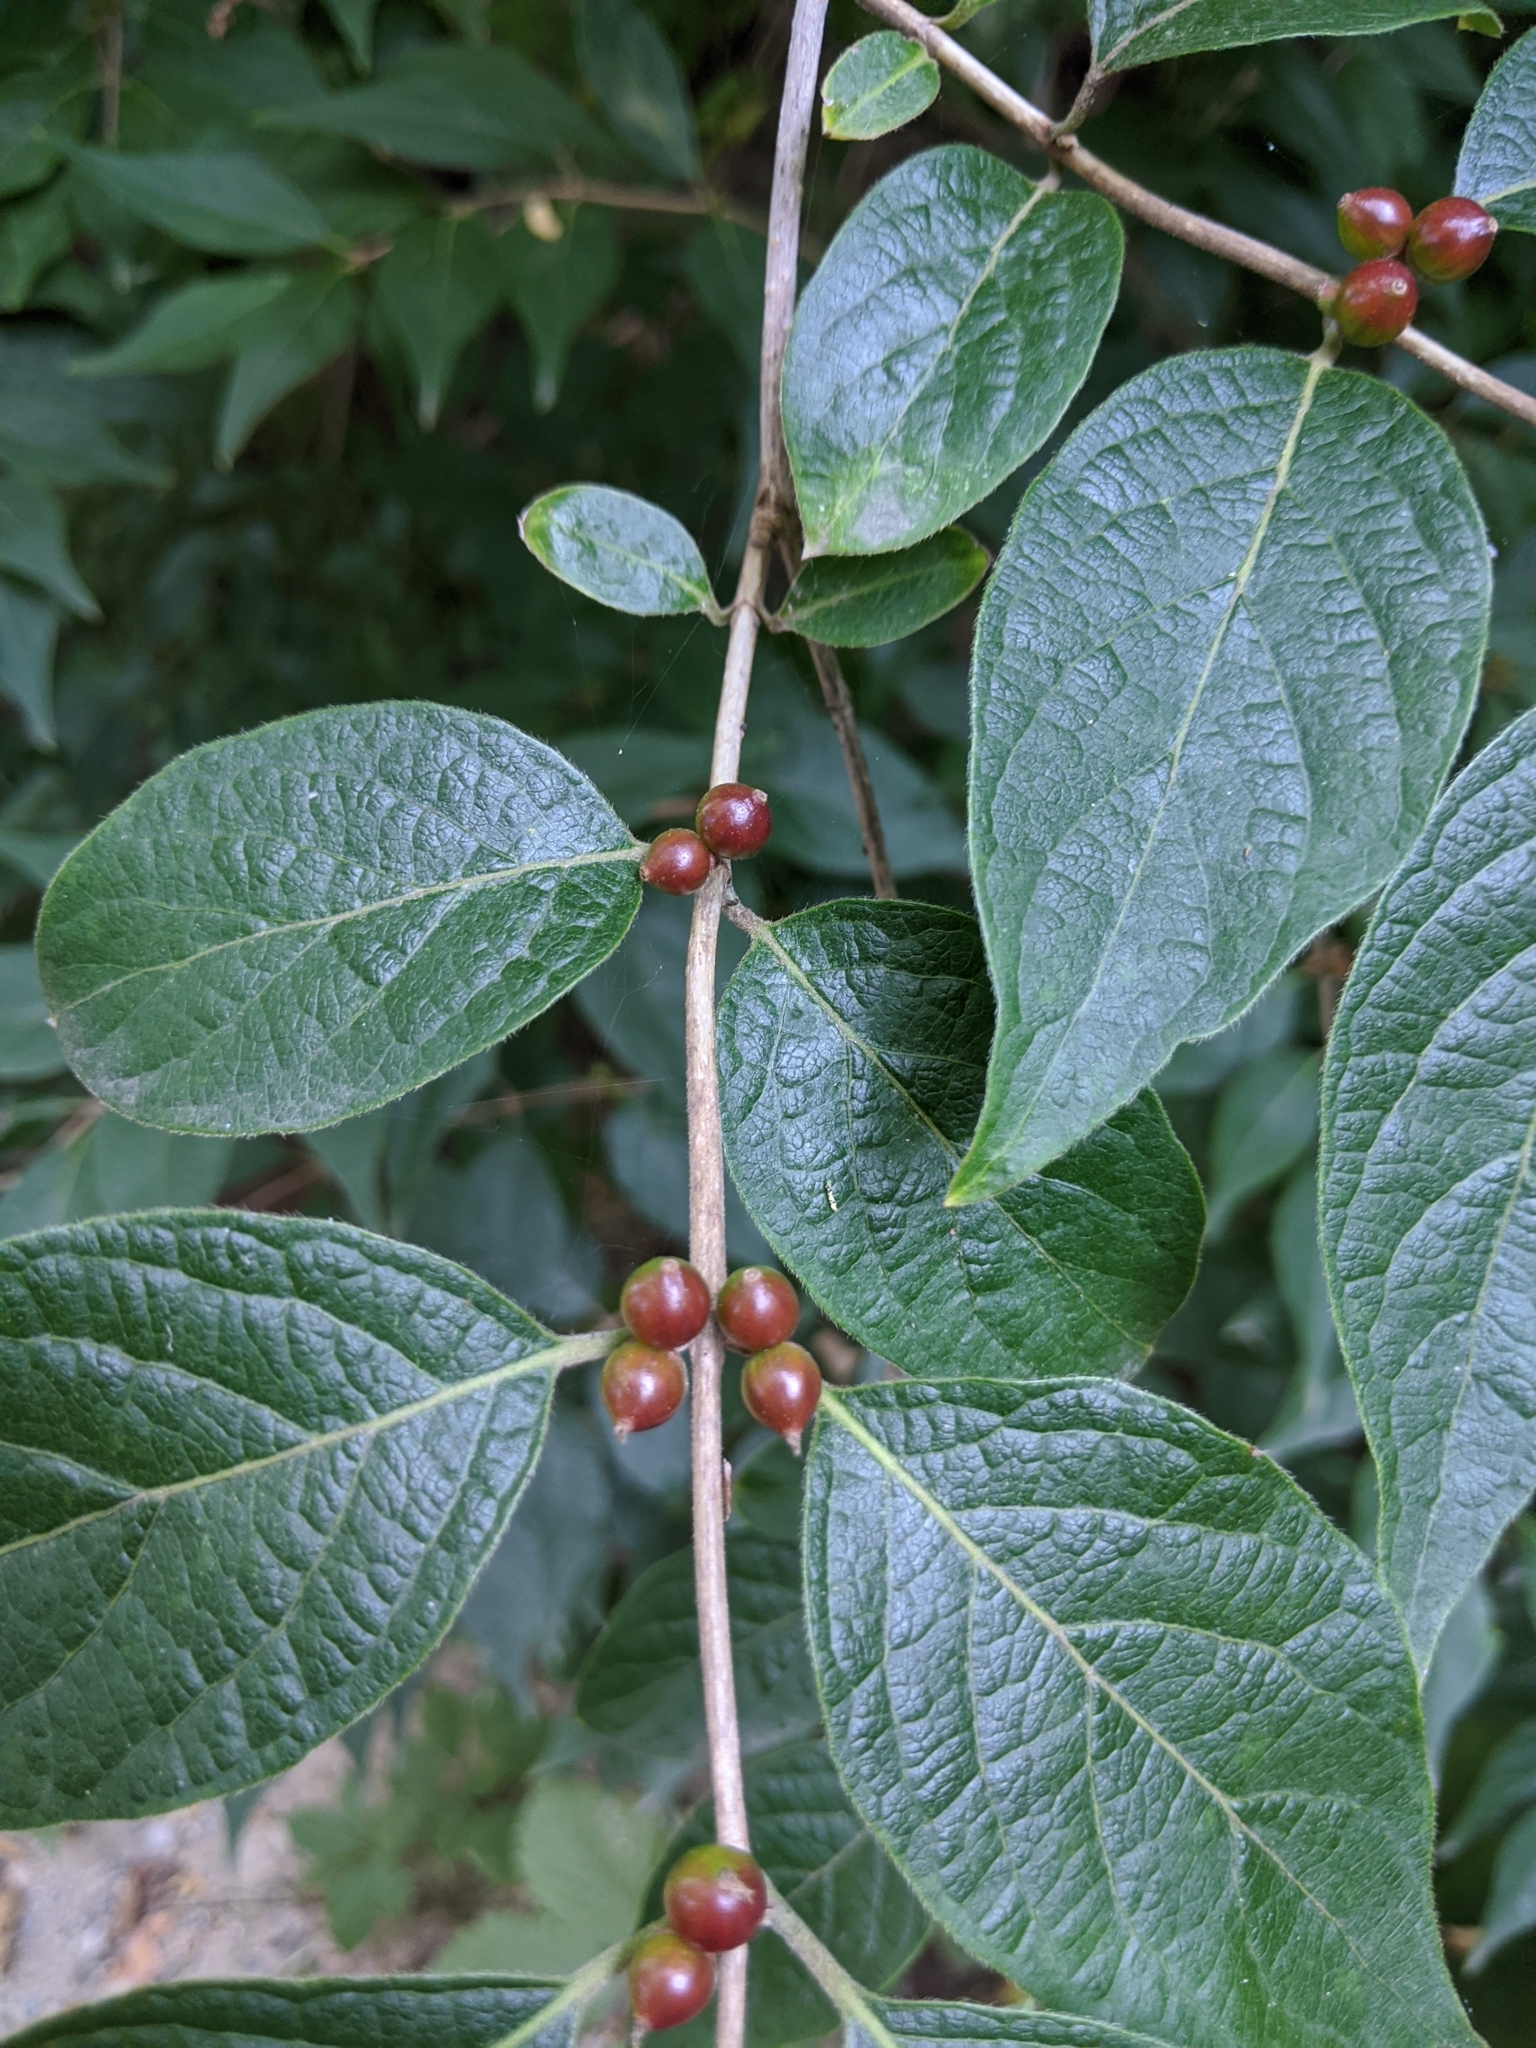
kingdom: Plantae
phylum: Tracheophyta
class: Magnoliopsida
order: Dipsacales
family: Caprifoliaceae
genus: Lonicera
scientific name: Lonicera maackii
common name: Amur honeysuckle
